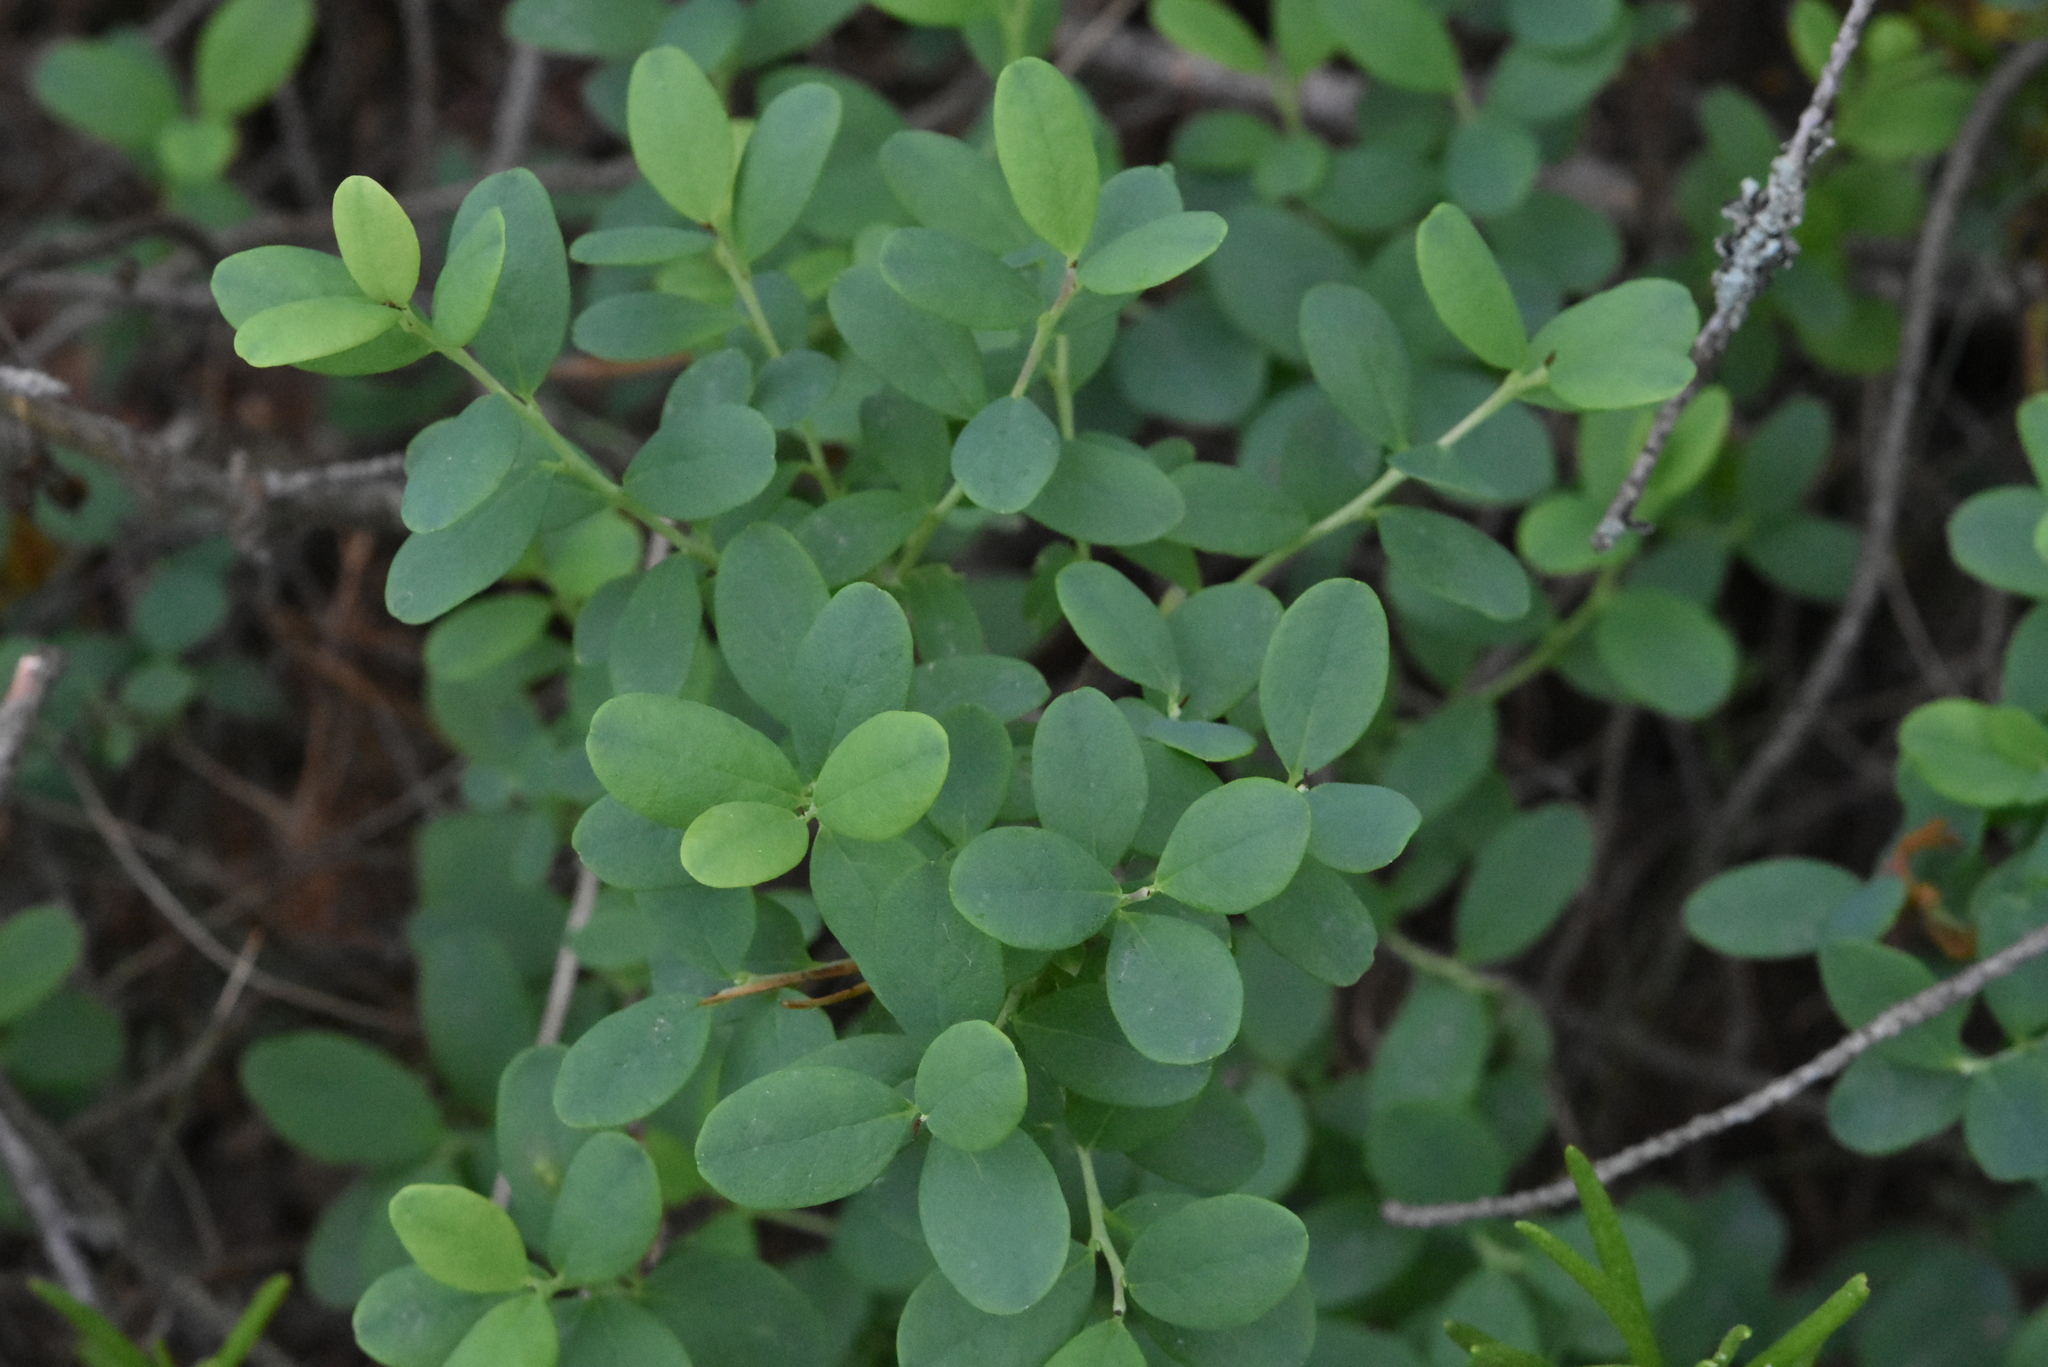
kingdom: Plantae
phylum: Tracheophyta
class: Magnoliopsida
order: Ericales
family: Ericaceae
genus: Vaccinium
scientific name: Vaccinium uliginosum
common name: Bog bilberry
